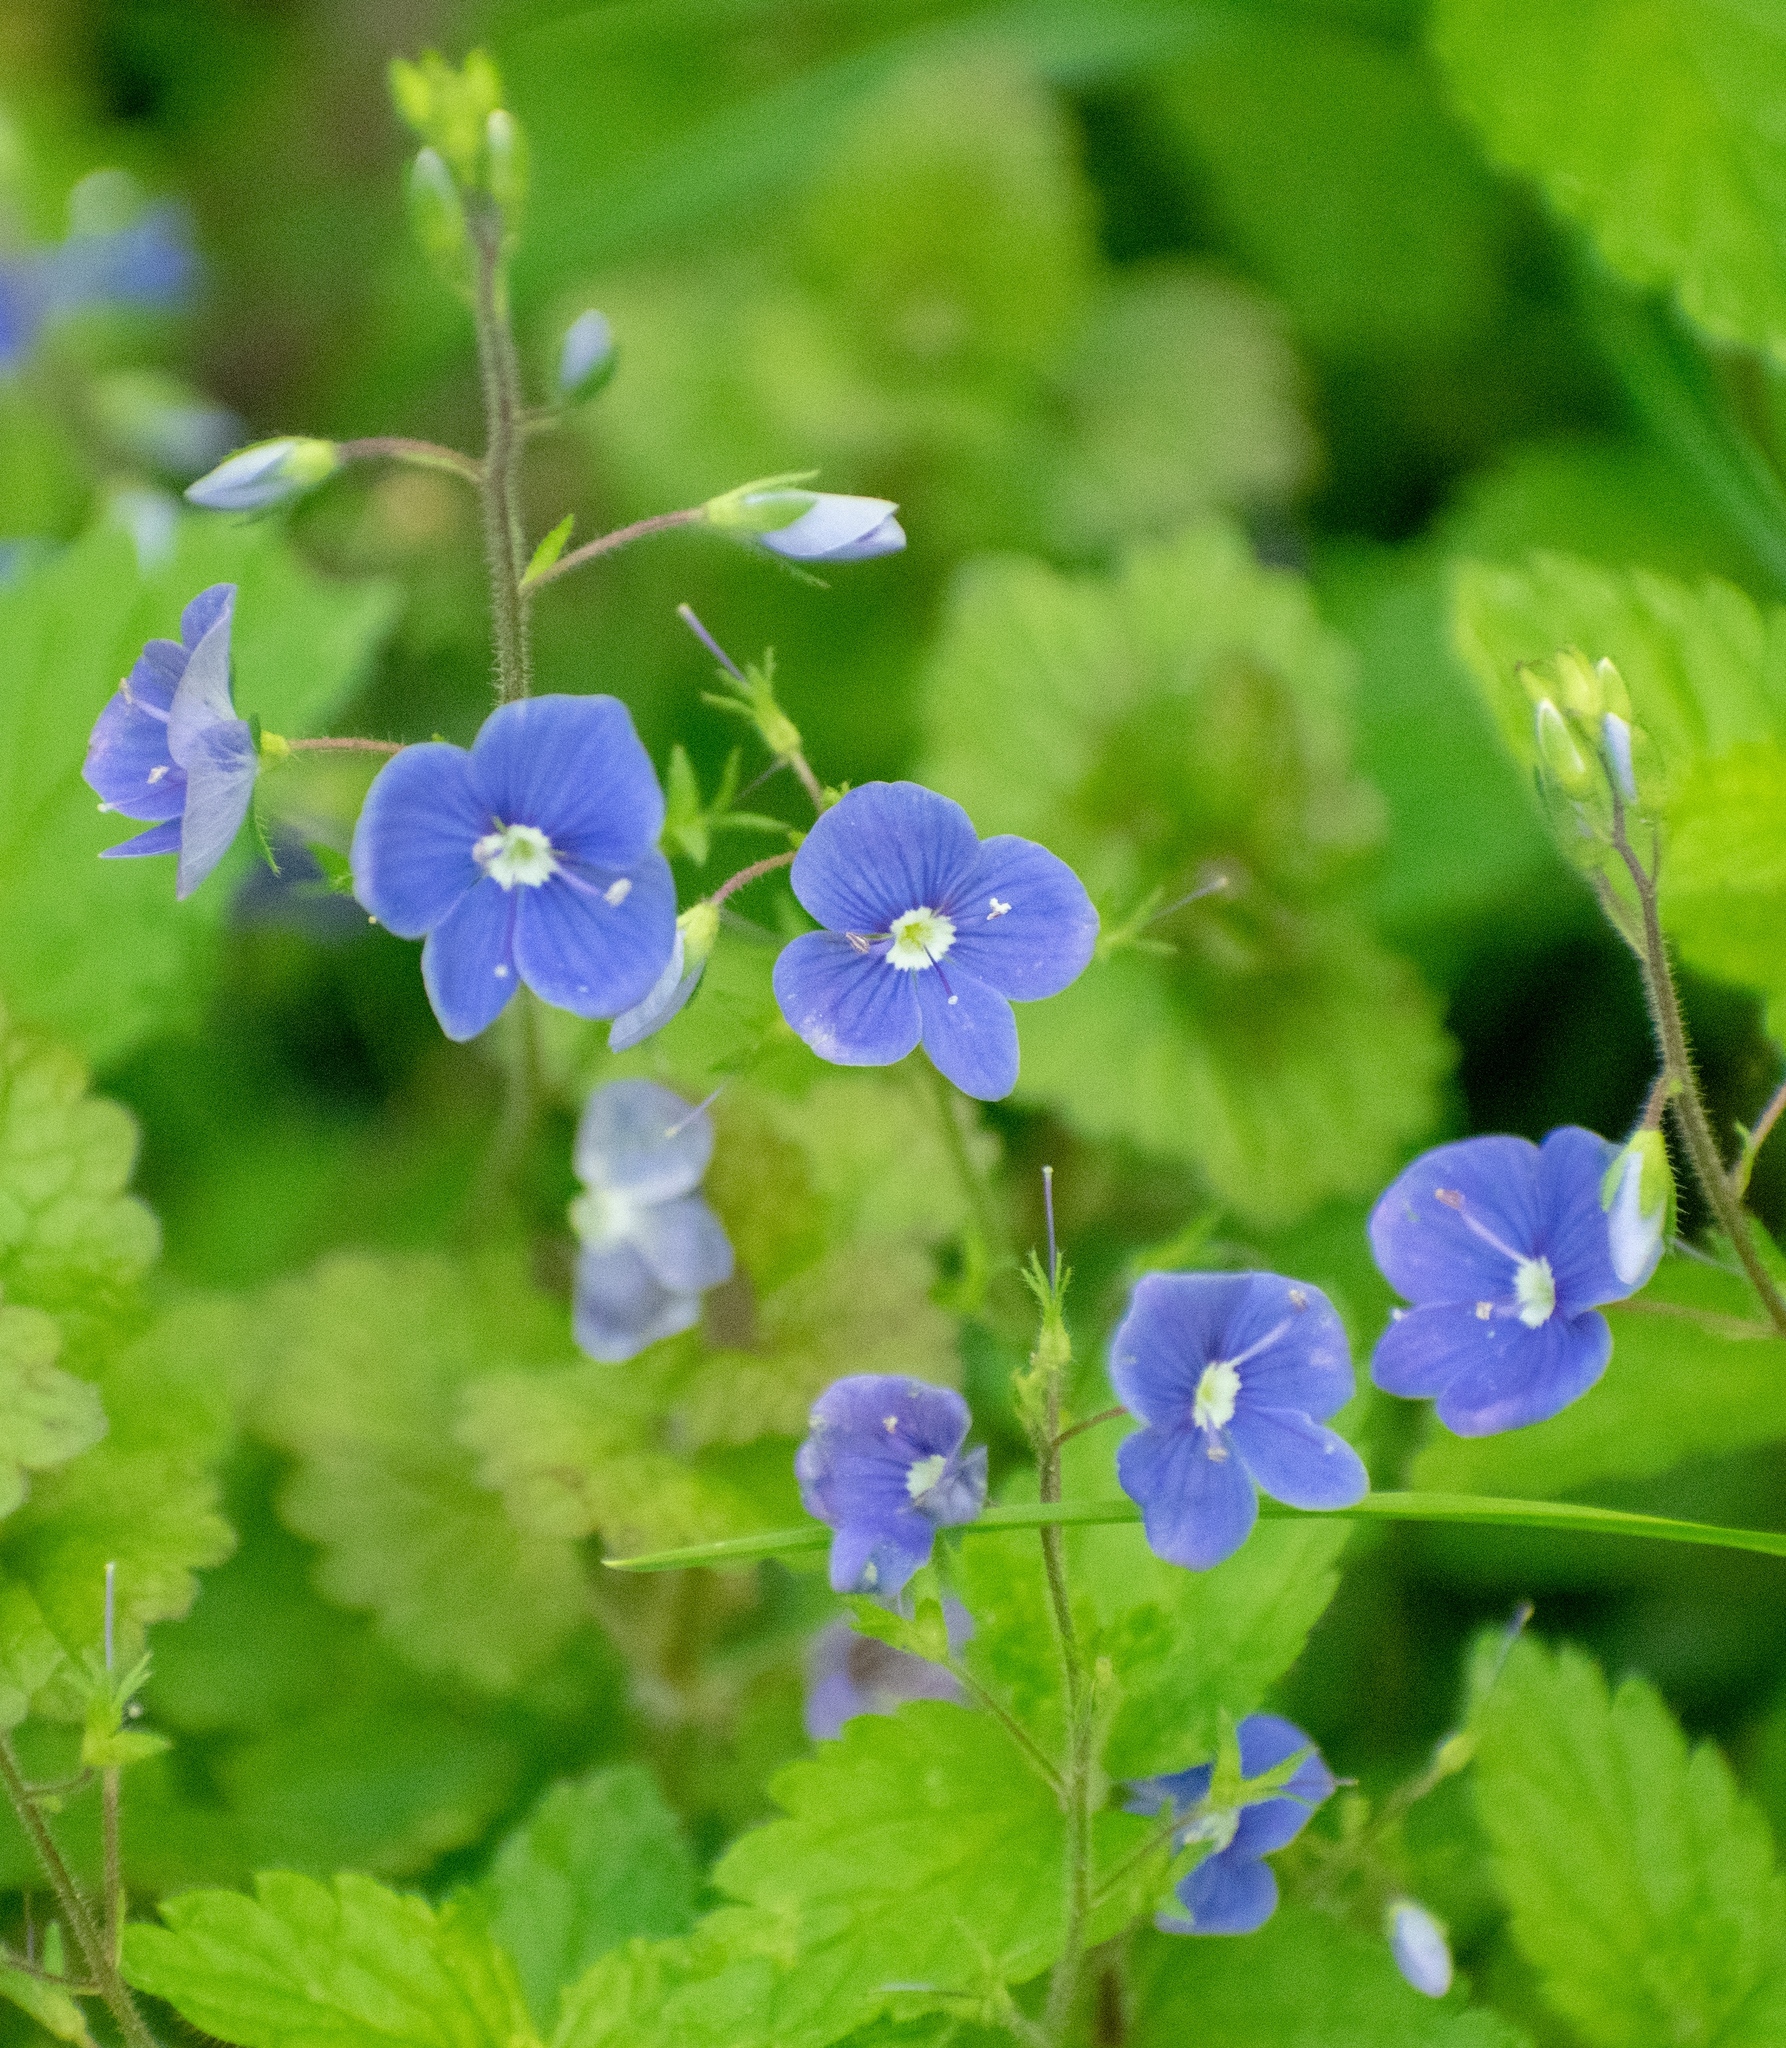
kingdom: Plantae
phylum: Tracheophyta
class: Magnoliopsida
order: Lamiales
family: Plantaginaceae
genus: Veronica
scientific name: Veronica chamaedrys
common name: Germander speedwell
